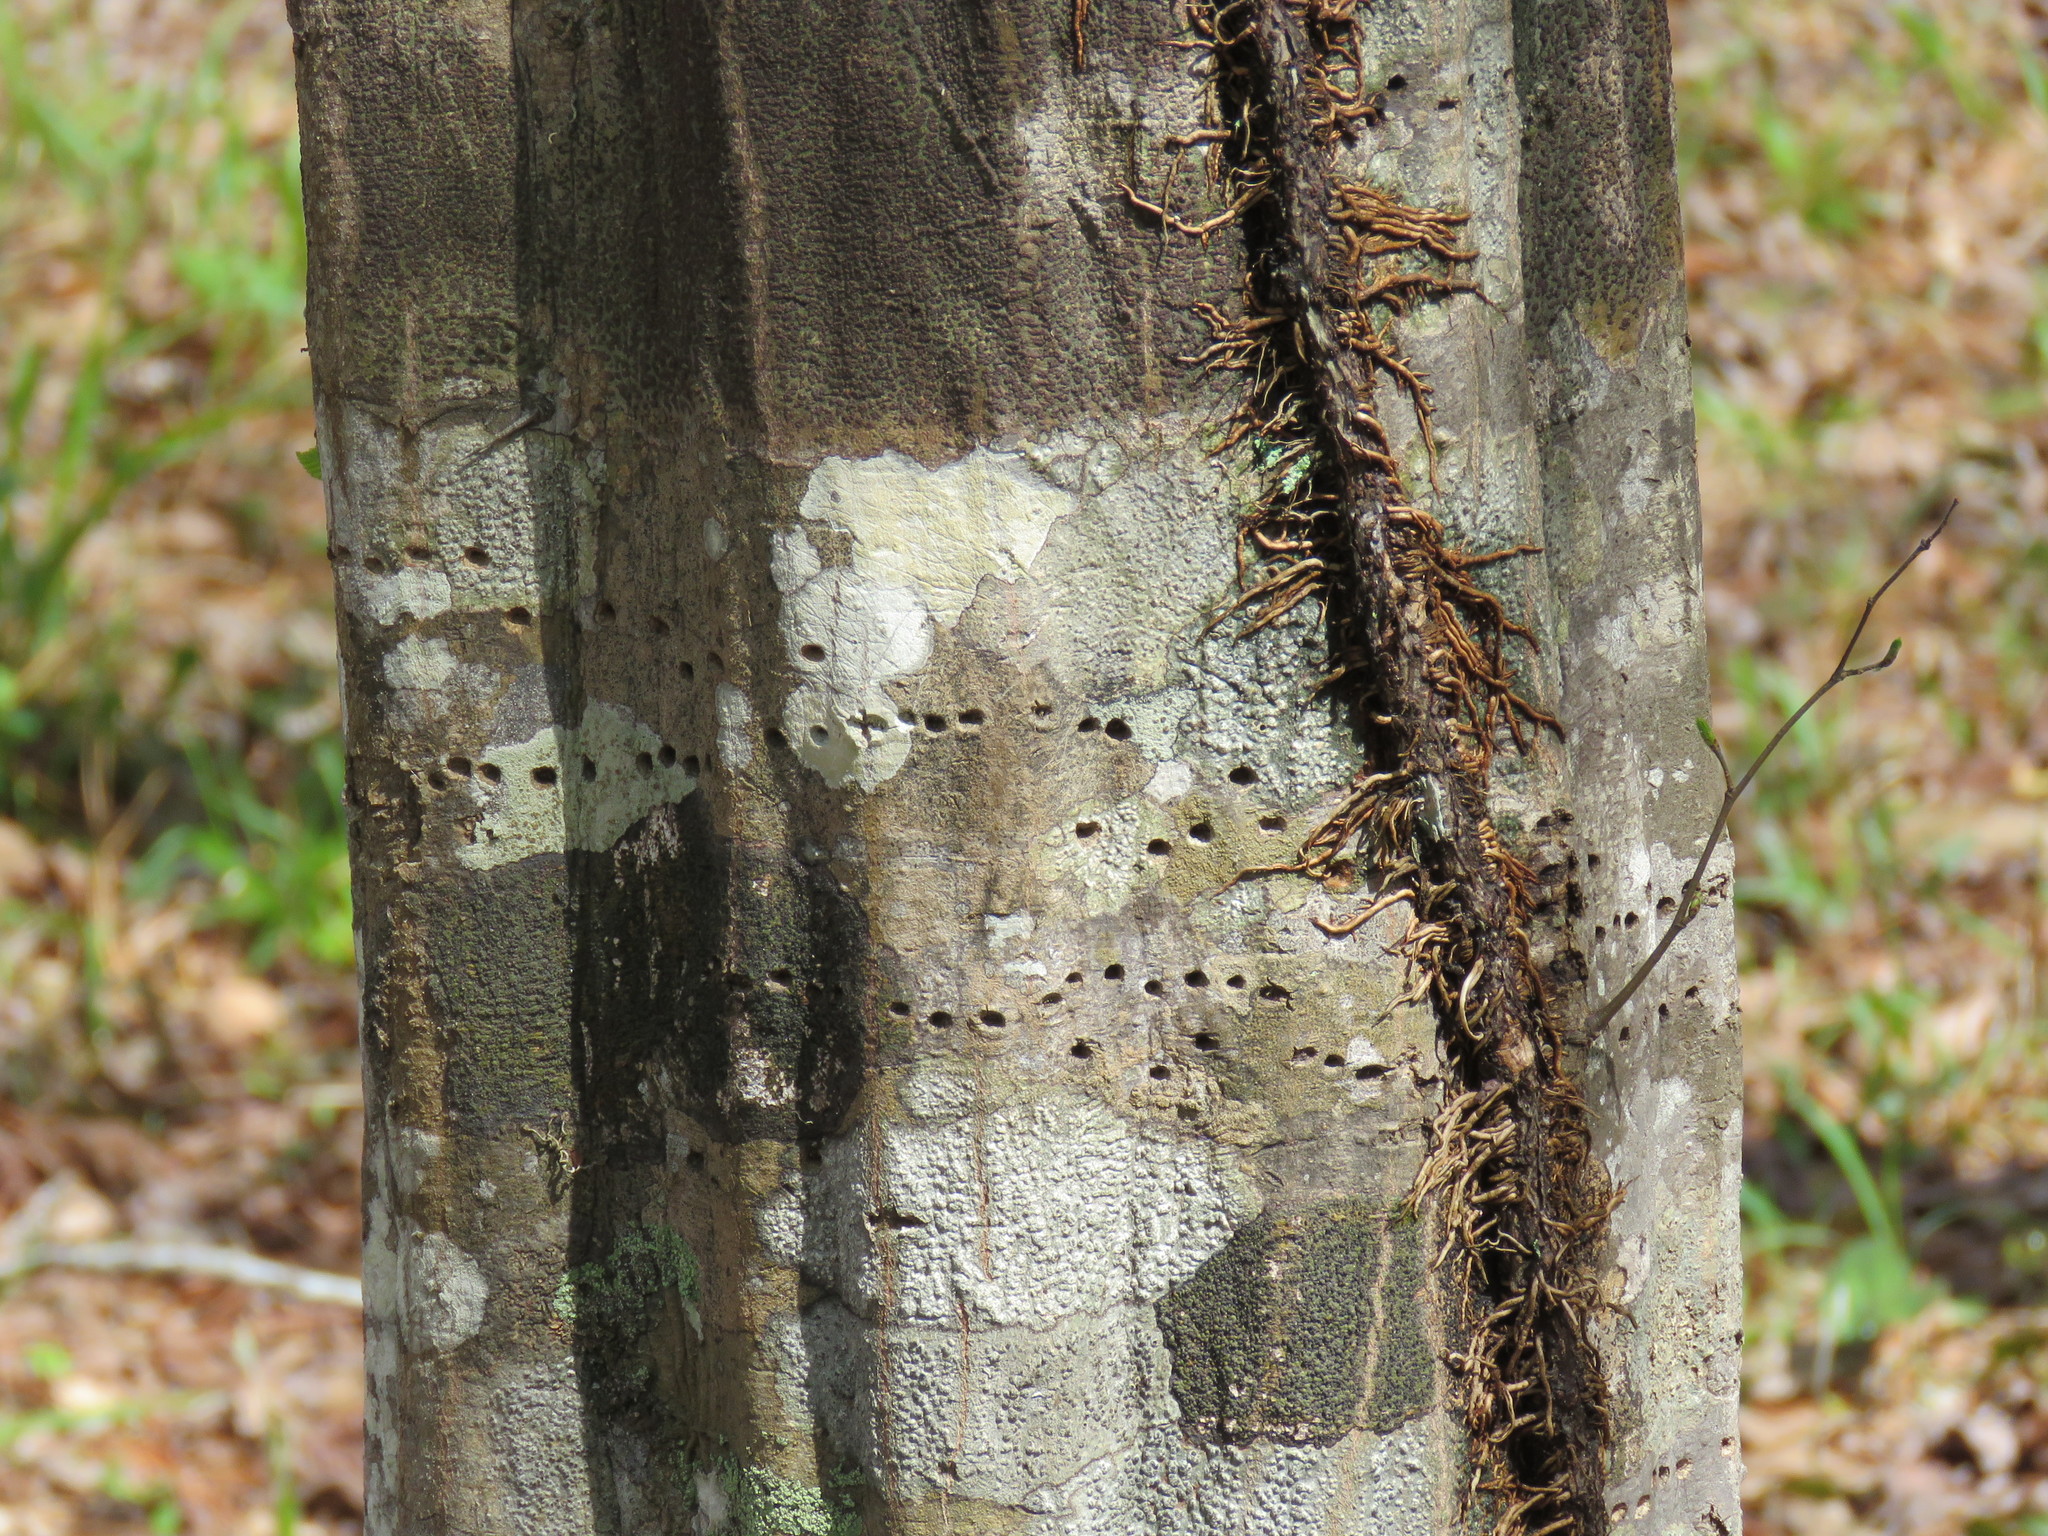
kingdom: Plantae
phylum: Tracheophyta
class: Magnoliopsida
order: Fagales
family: Betulaceae
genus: Carpinus
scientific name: Carpinus caroliniana
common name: American hornbeam
